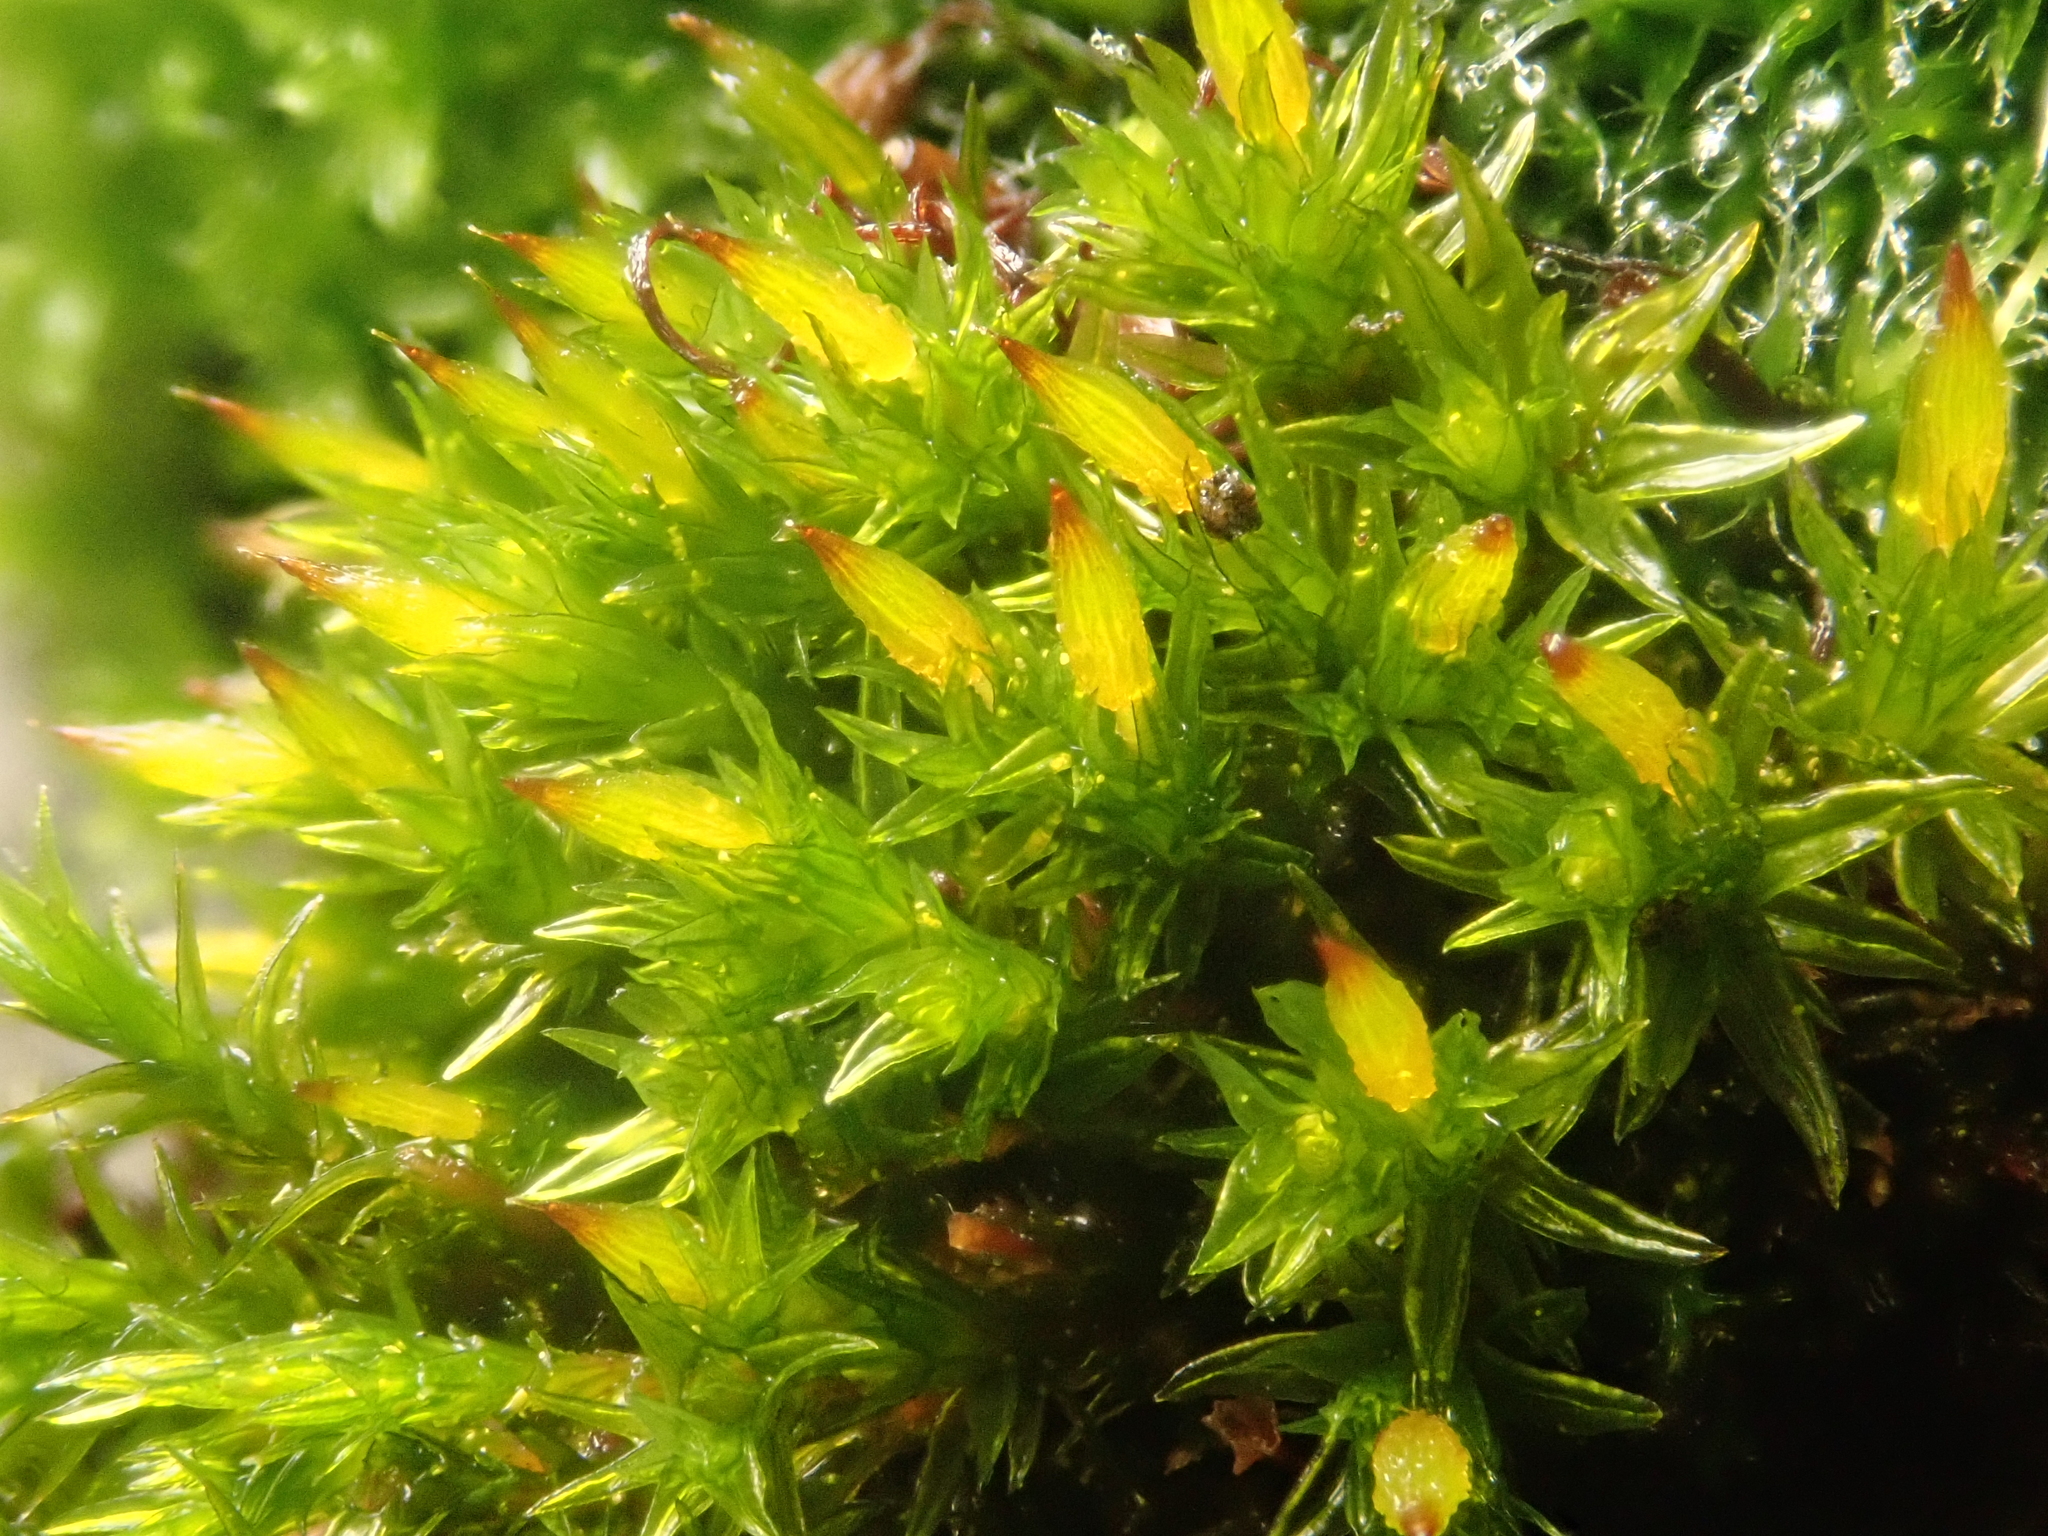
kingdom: Plantae
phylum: Bryophyta
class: Bryopsida
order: Orthotrichales
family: Orthotrichaceae
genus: Orthotrichum
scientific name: Orthotrichum anomalum
